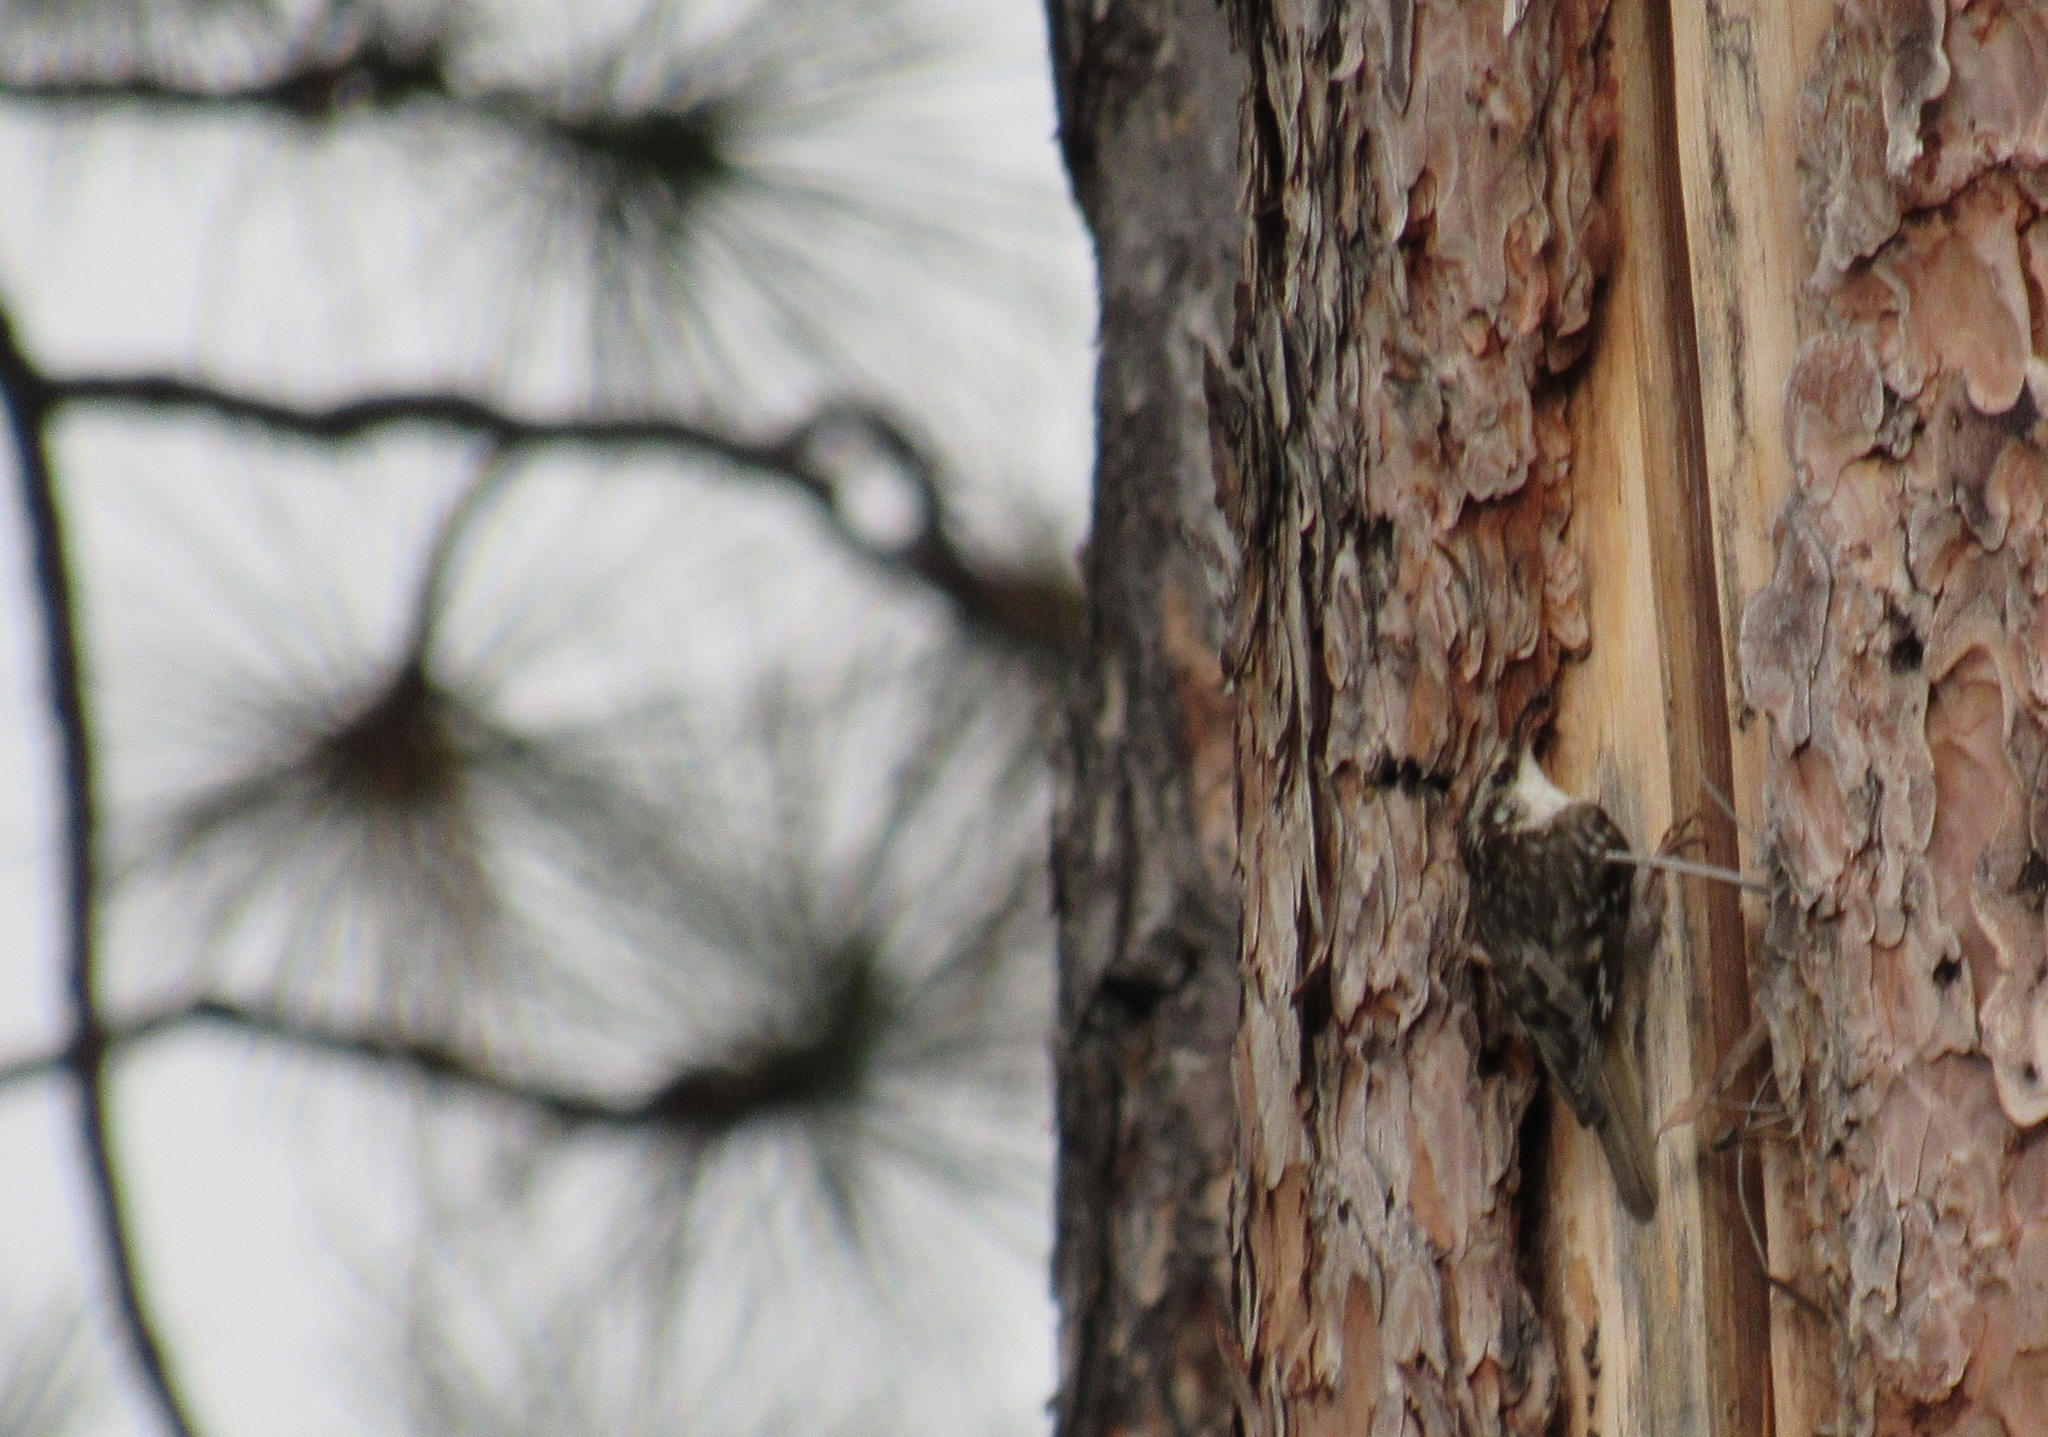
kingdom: Animalia
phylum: Chordata
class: Aves
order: Passeriformes
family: Certhiidae
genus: Certhia
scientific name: Certhia americana
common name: Brown creeper
